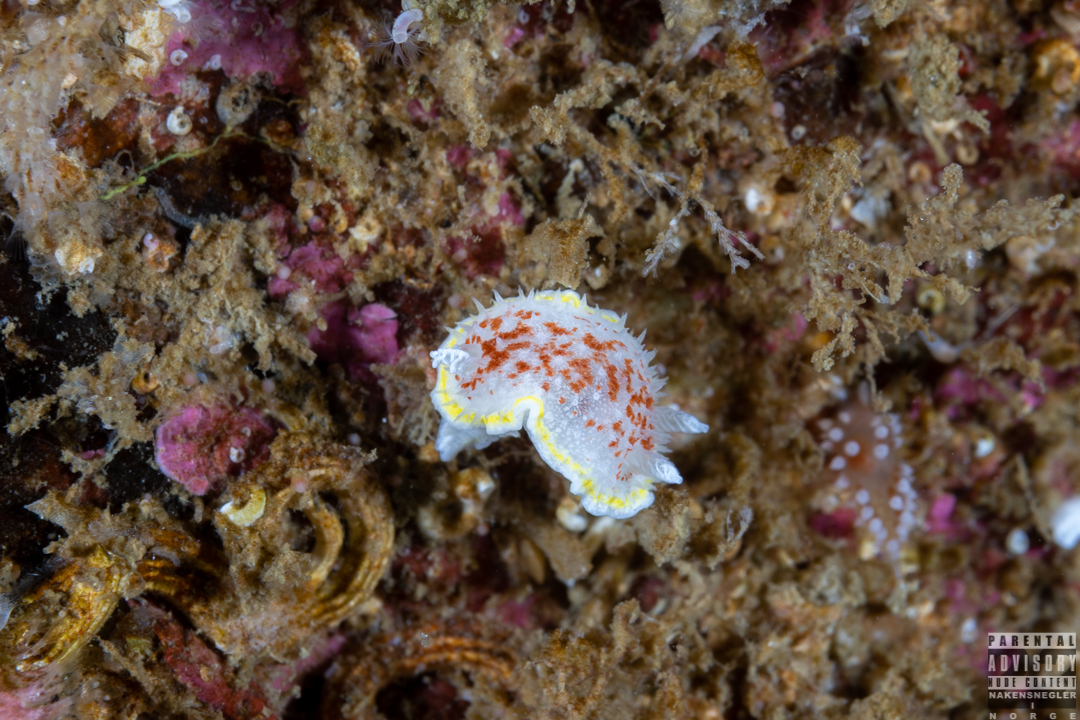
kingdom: Animalia
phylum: Mollusca
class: Gastropoda
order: Nudibranchia
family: Calycidorididae
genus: Diaphorodoris
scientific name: Diaphorodoris luteocincta
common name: Fried egg nudibranch
